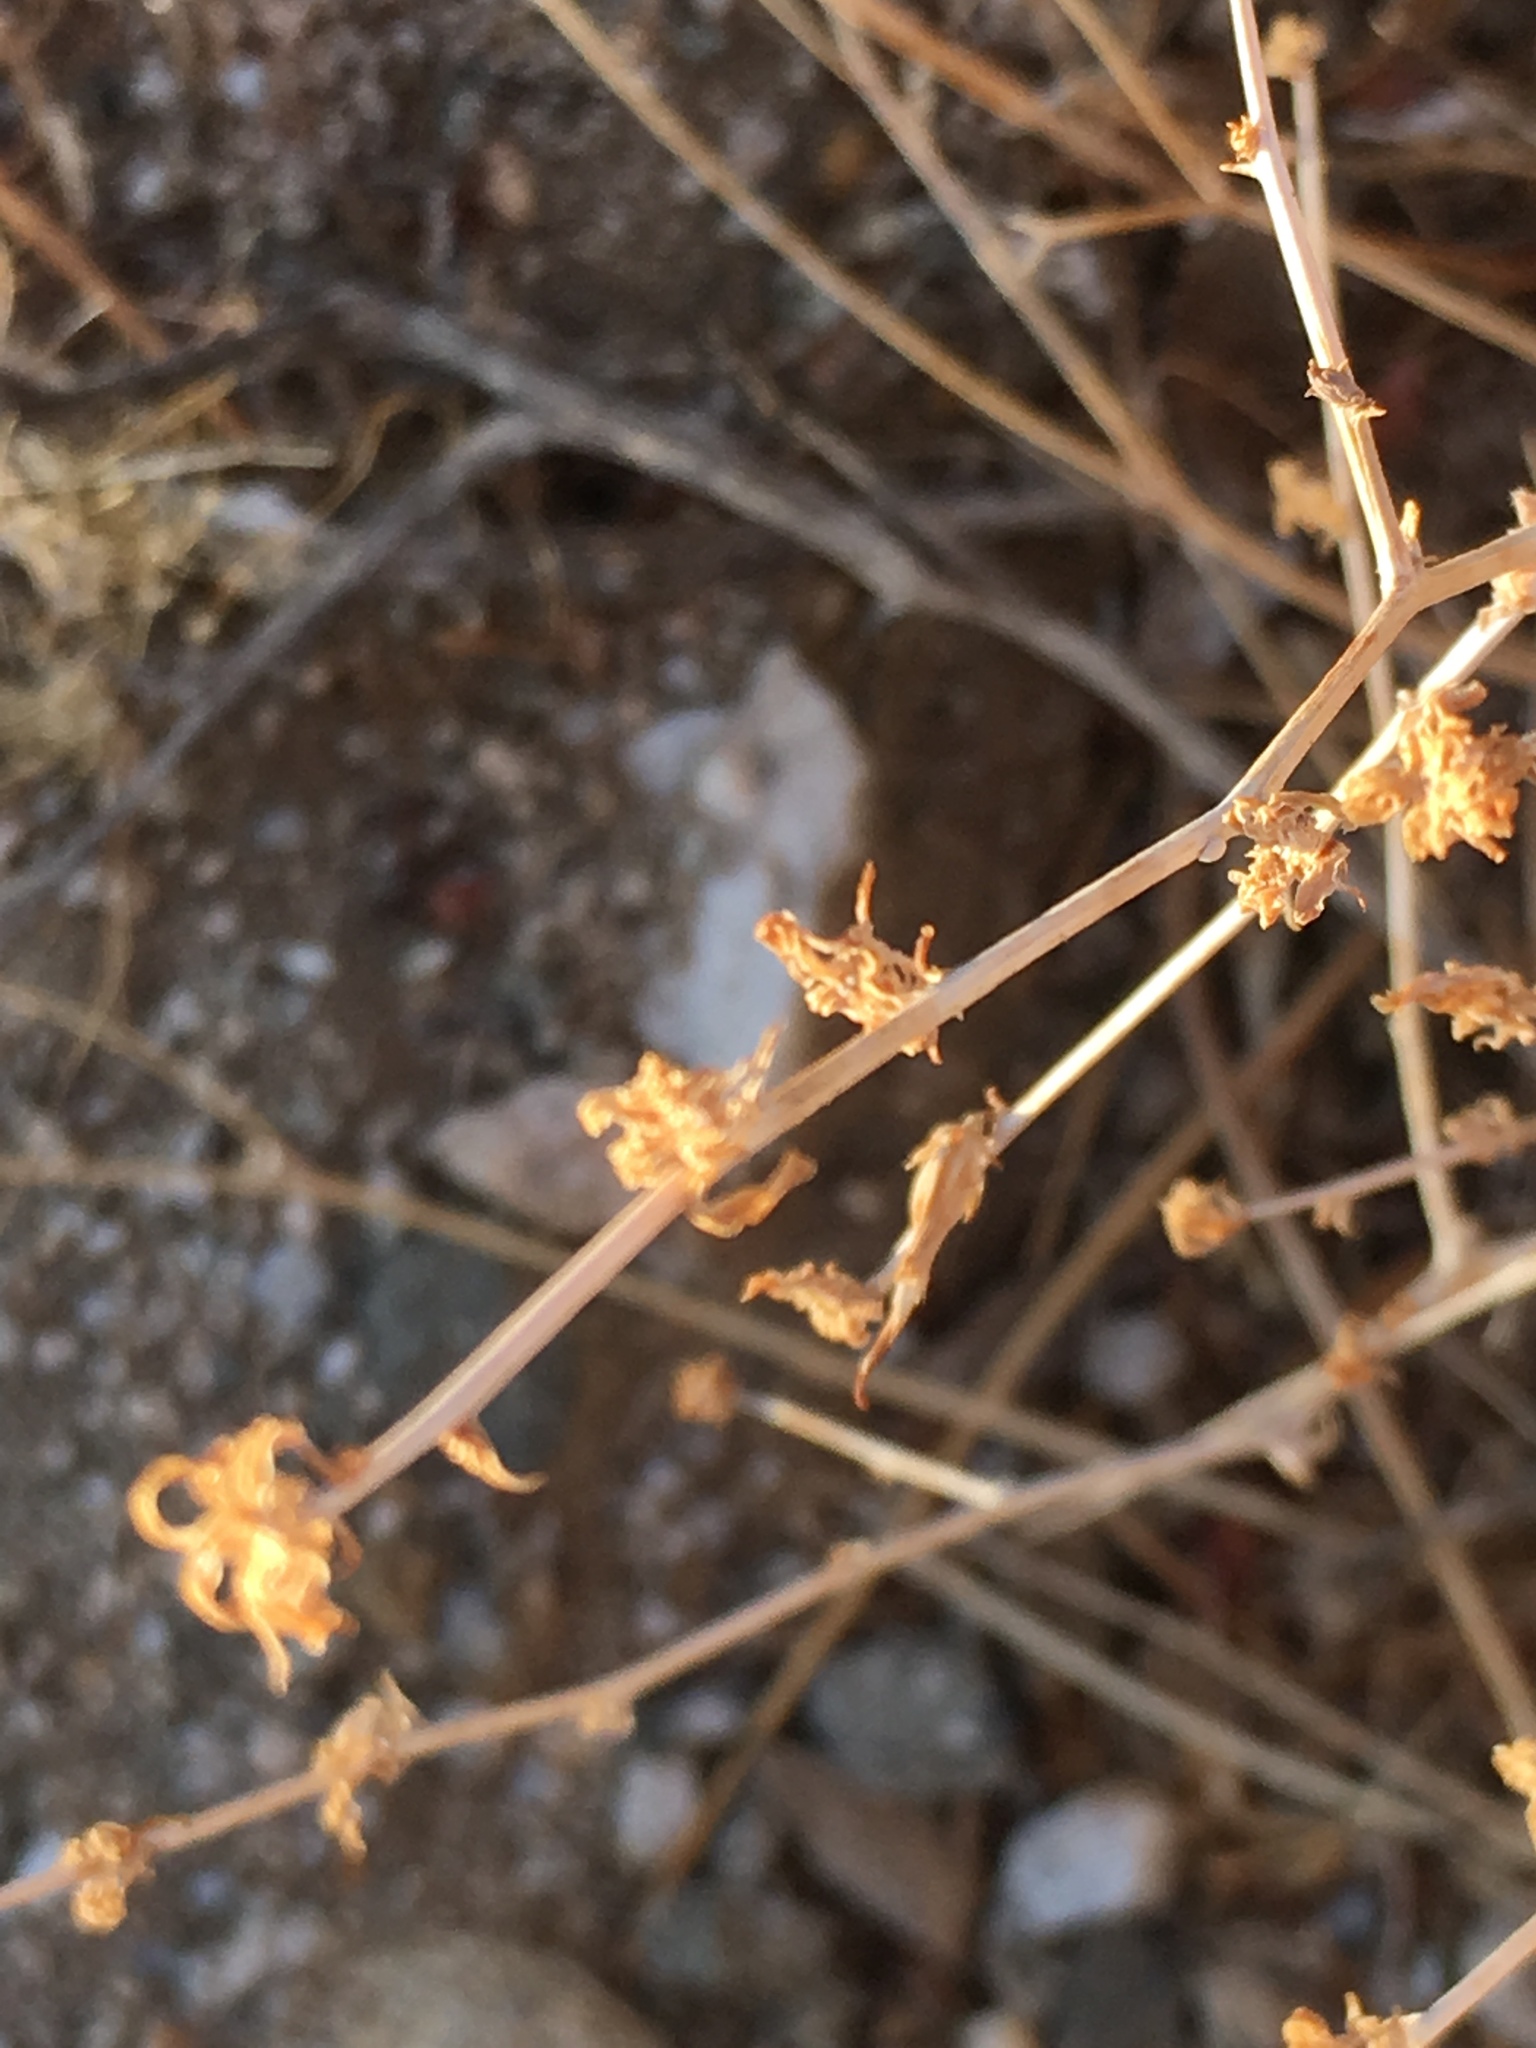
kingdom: Plantae
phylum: Tracheophyta
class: Magnoliopsida
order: Asterales
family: Asteraceae
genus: Stephanomeria
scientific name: Stephanomeria pauciflora
